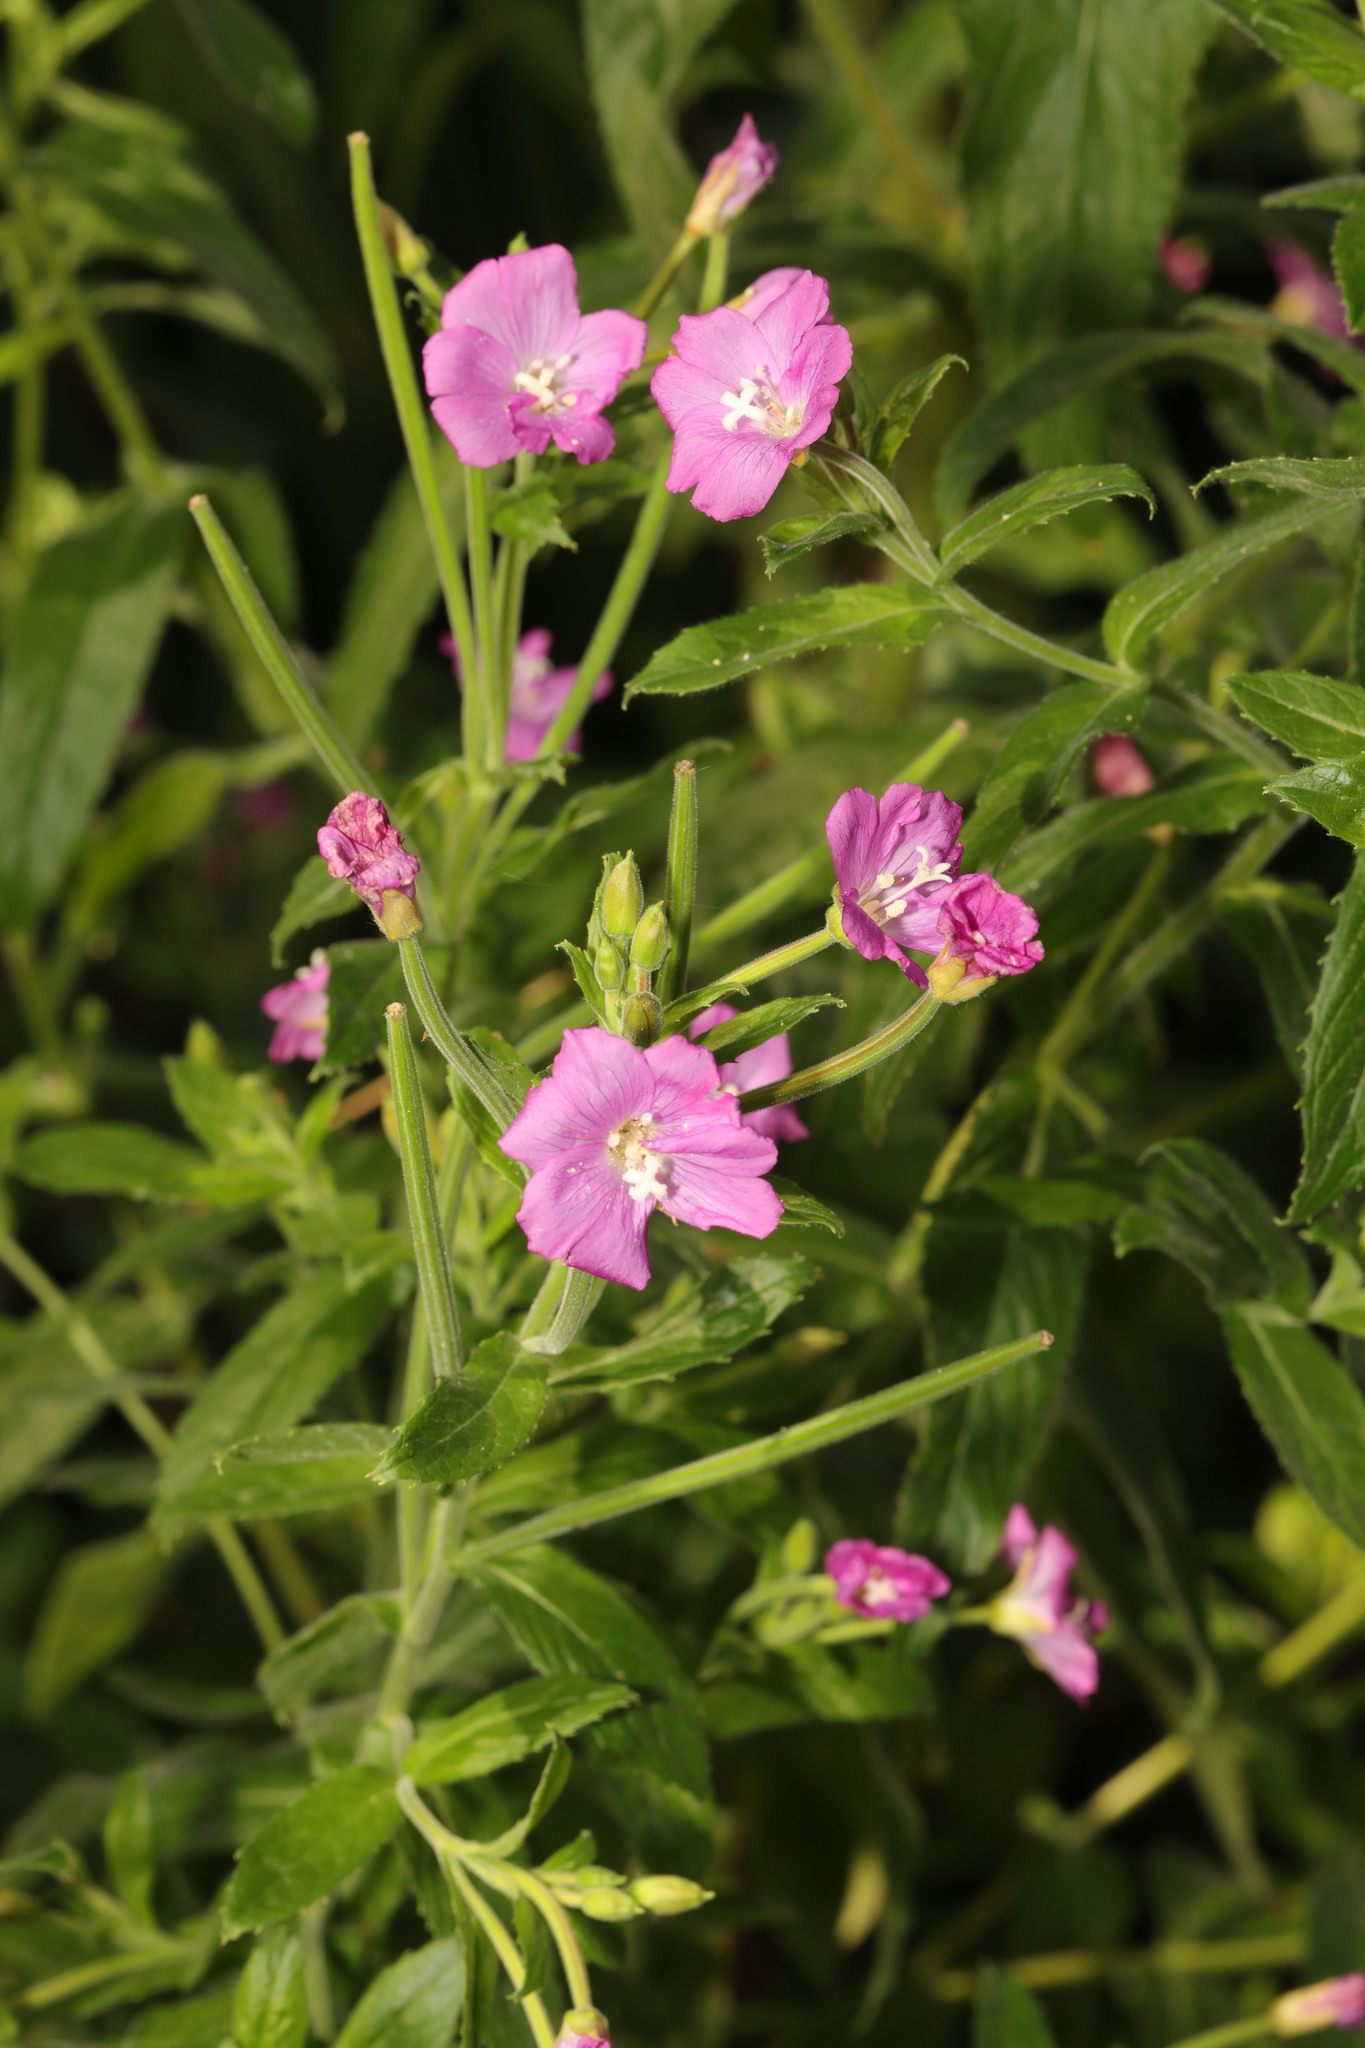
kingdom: Plantae
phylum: Tracheophyta
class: Magnoliopsida
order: Myrtales
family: Onagraceae
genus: Epilobium
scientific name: Epilobium hirsutum
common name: Great willowherb
